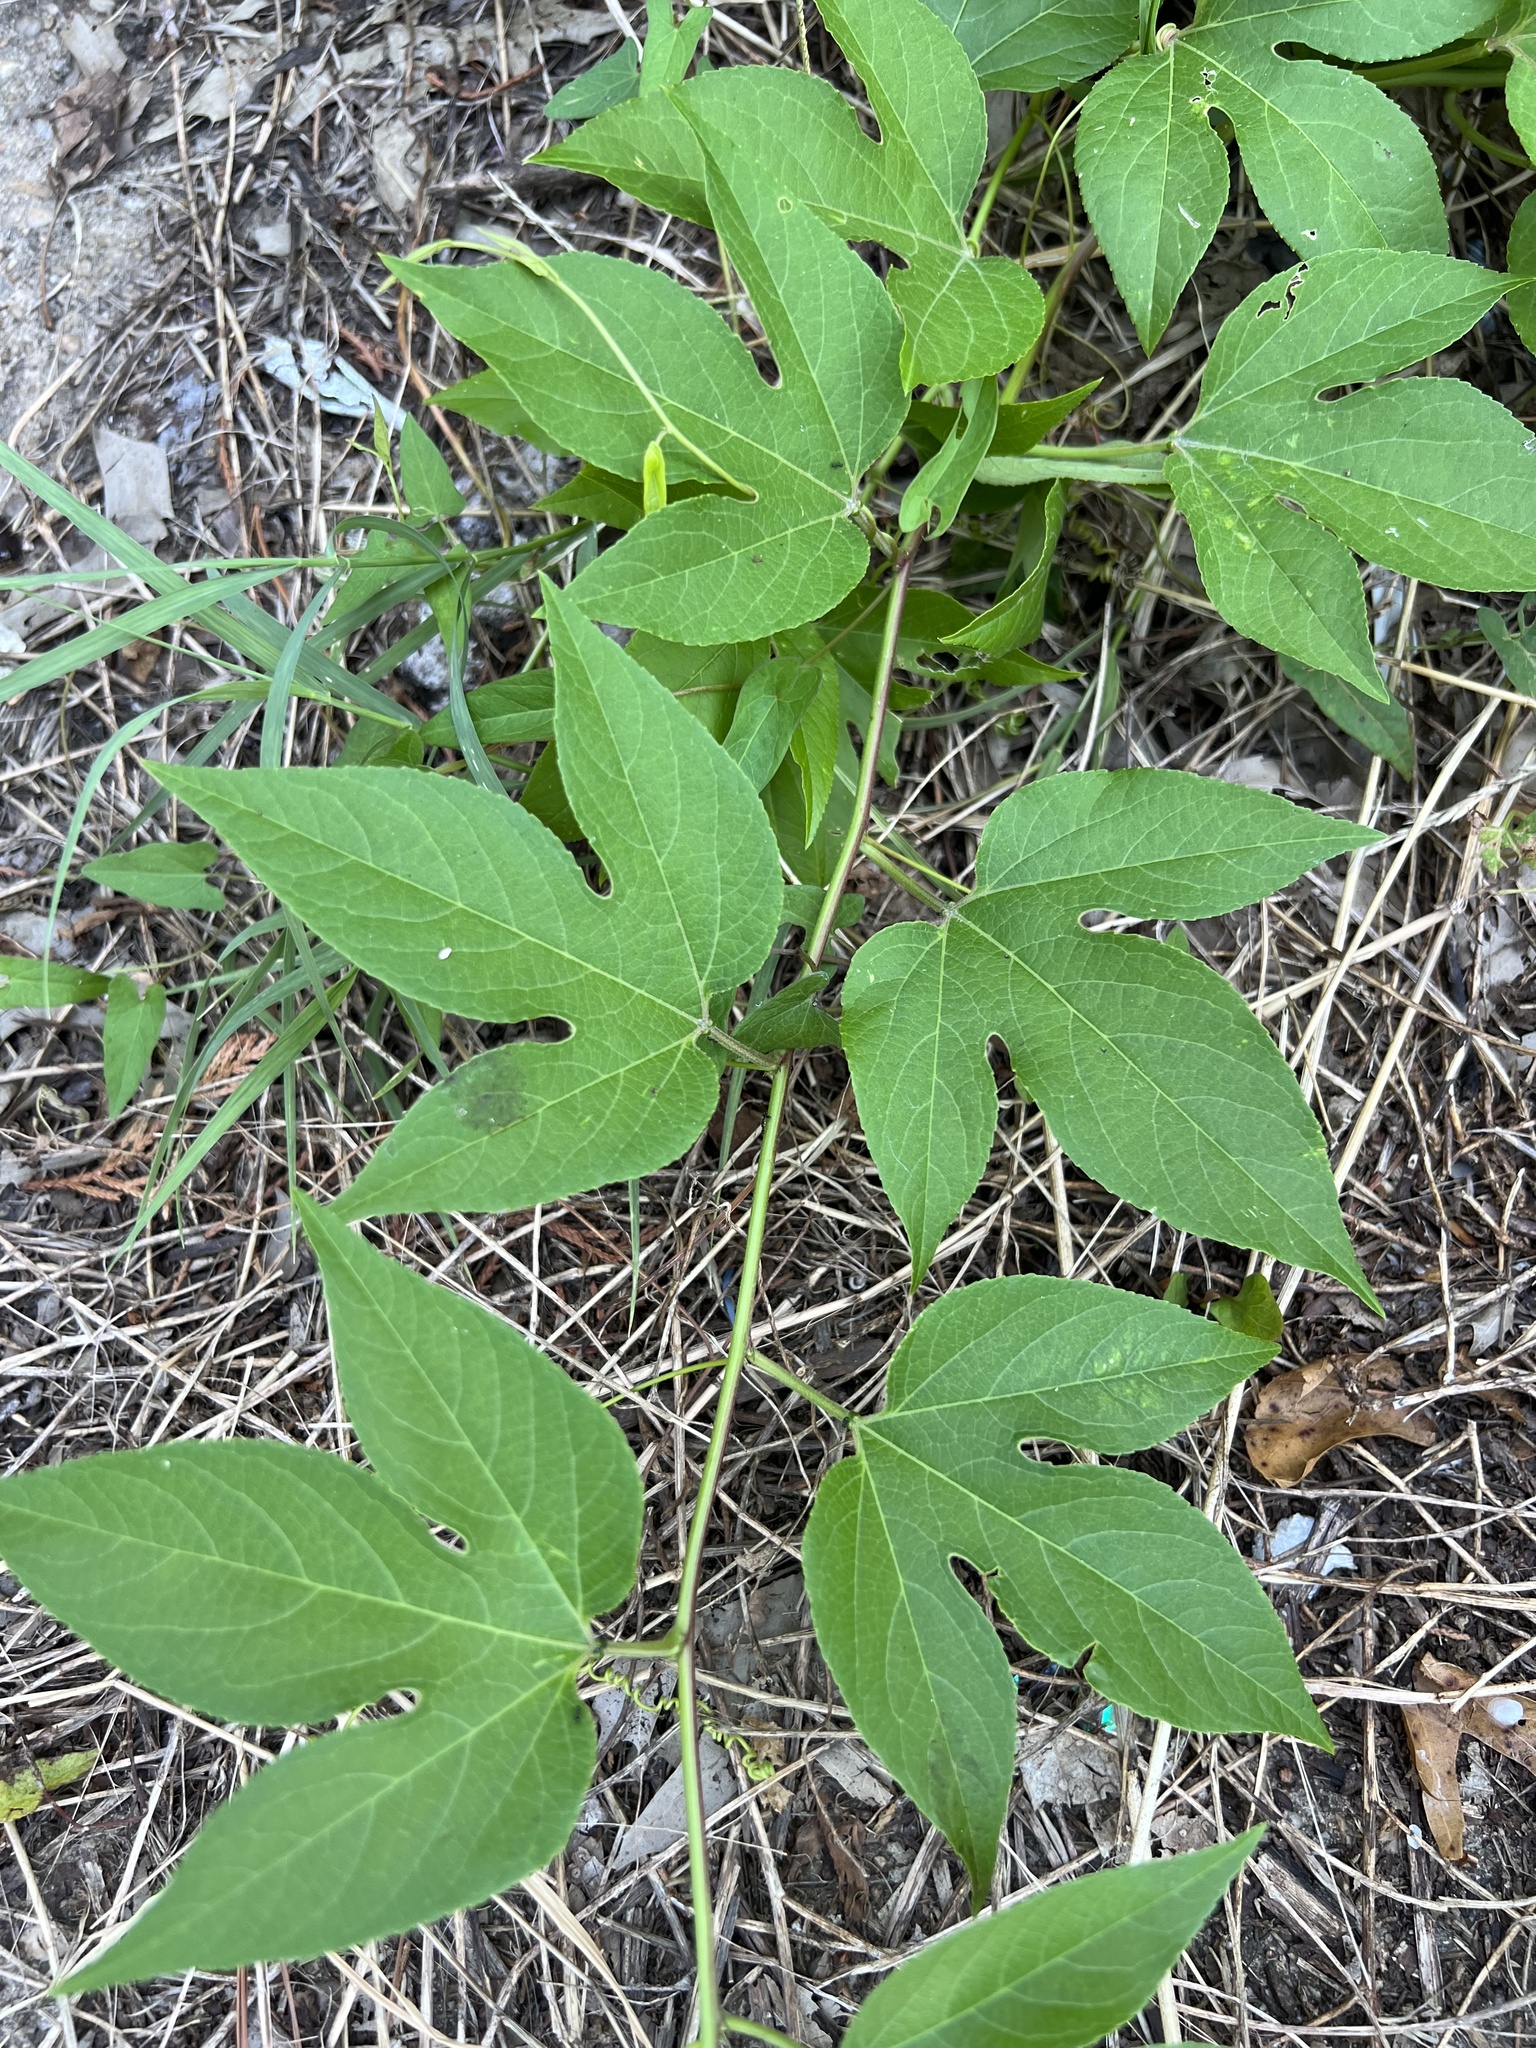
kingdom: Plantae
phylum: Tracheophyta
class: Magnoliopsida
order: Malpighiales
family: Passifloraceae
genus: Passiflora
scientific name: Passiflora incarnata
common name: Apricot-vine
